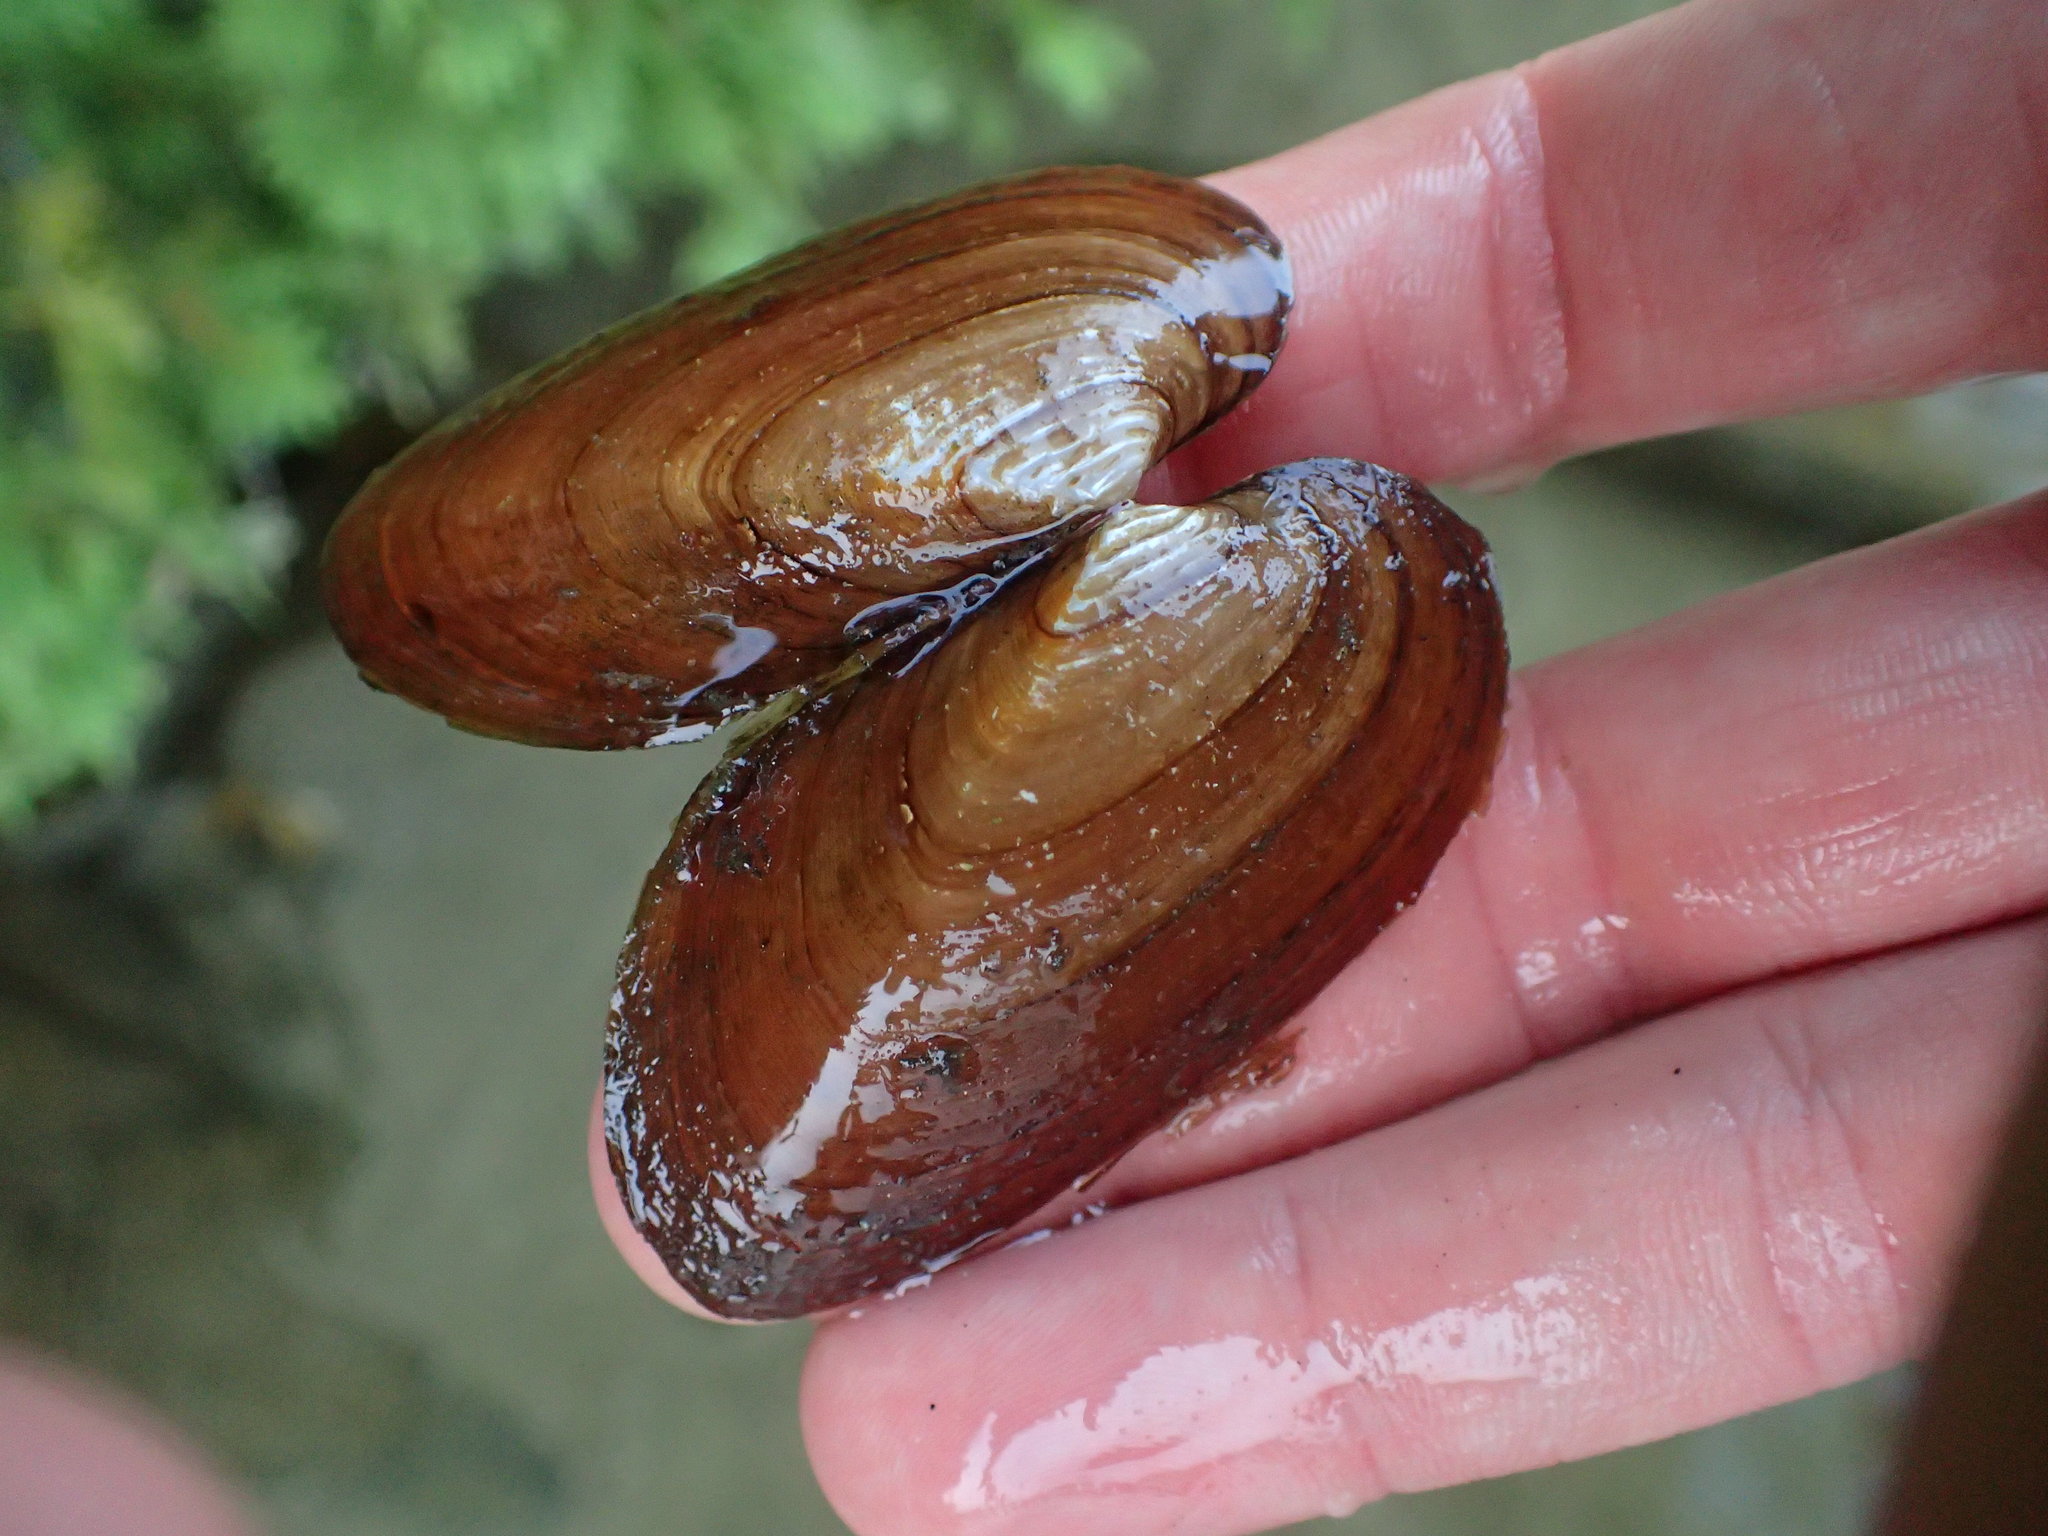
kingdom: Animalia
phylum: Mollusca
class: Bivalvia
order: Unionida
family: Unionidae
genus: Elliptio
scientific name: Elliptio complanata
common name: Eastern elliptio
